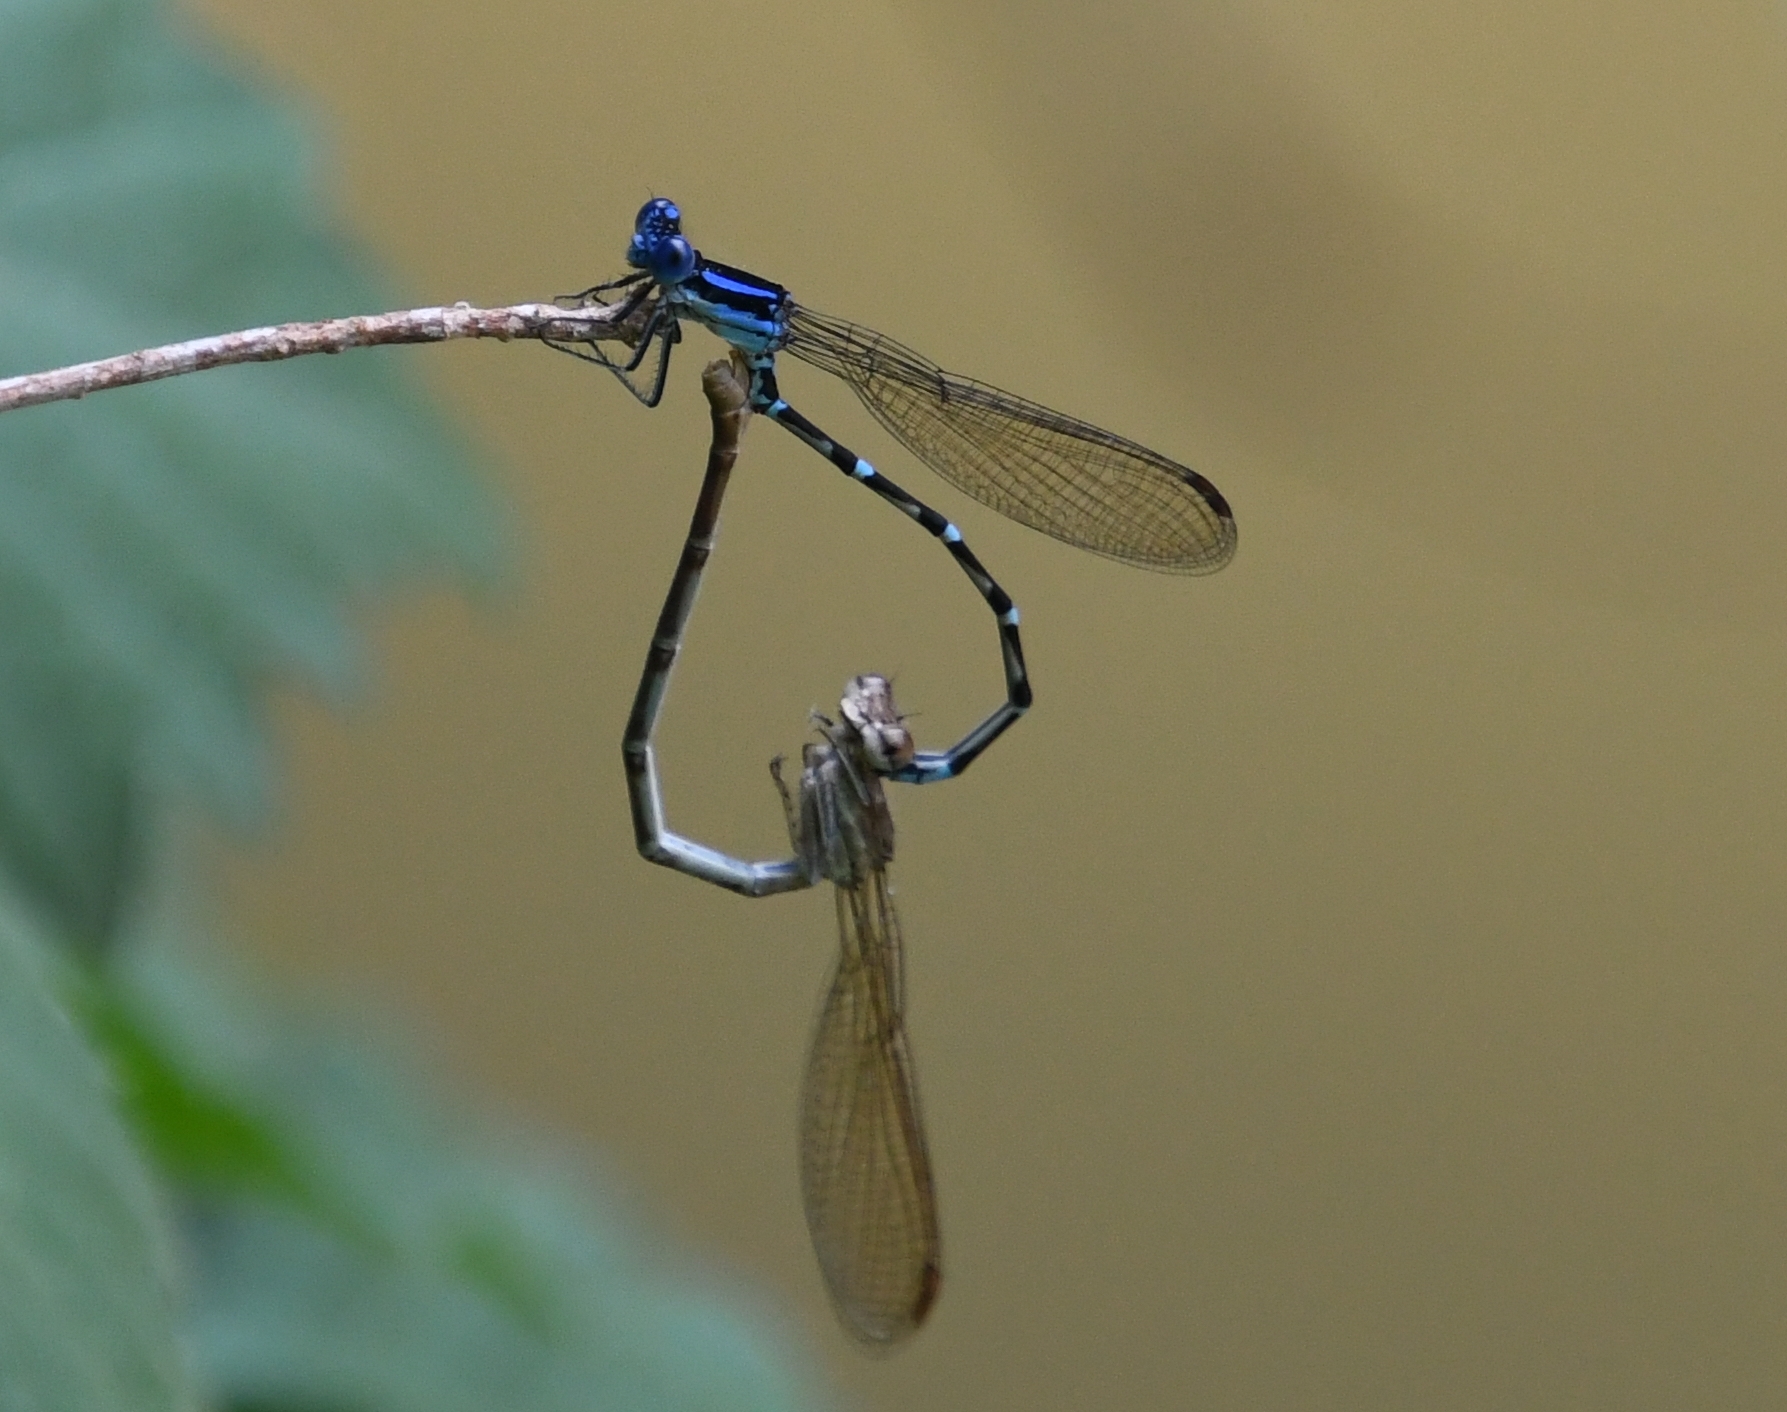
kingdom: Animalia
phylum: Arthropoda
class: Insecta
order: Odonata
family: Coenagrionidae
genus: Argia
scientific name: Argia sedula
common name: Blue-ringed dancer
